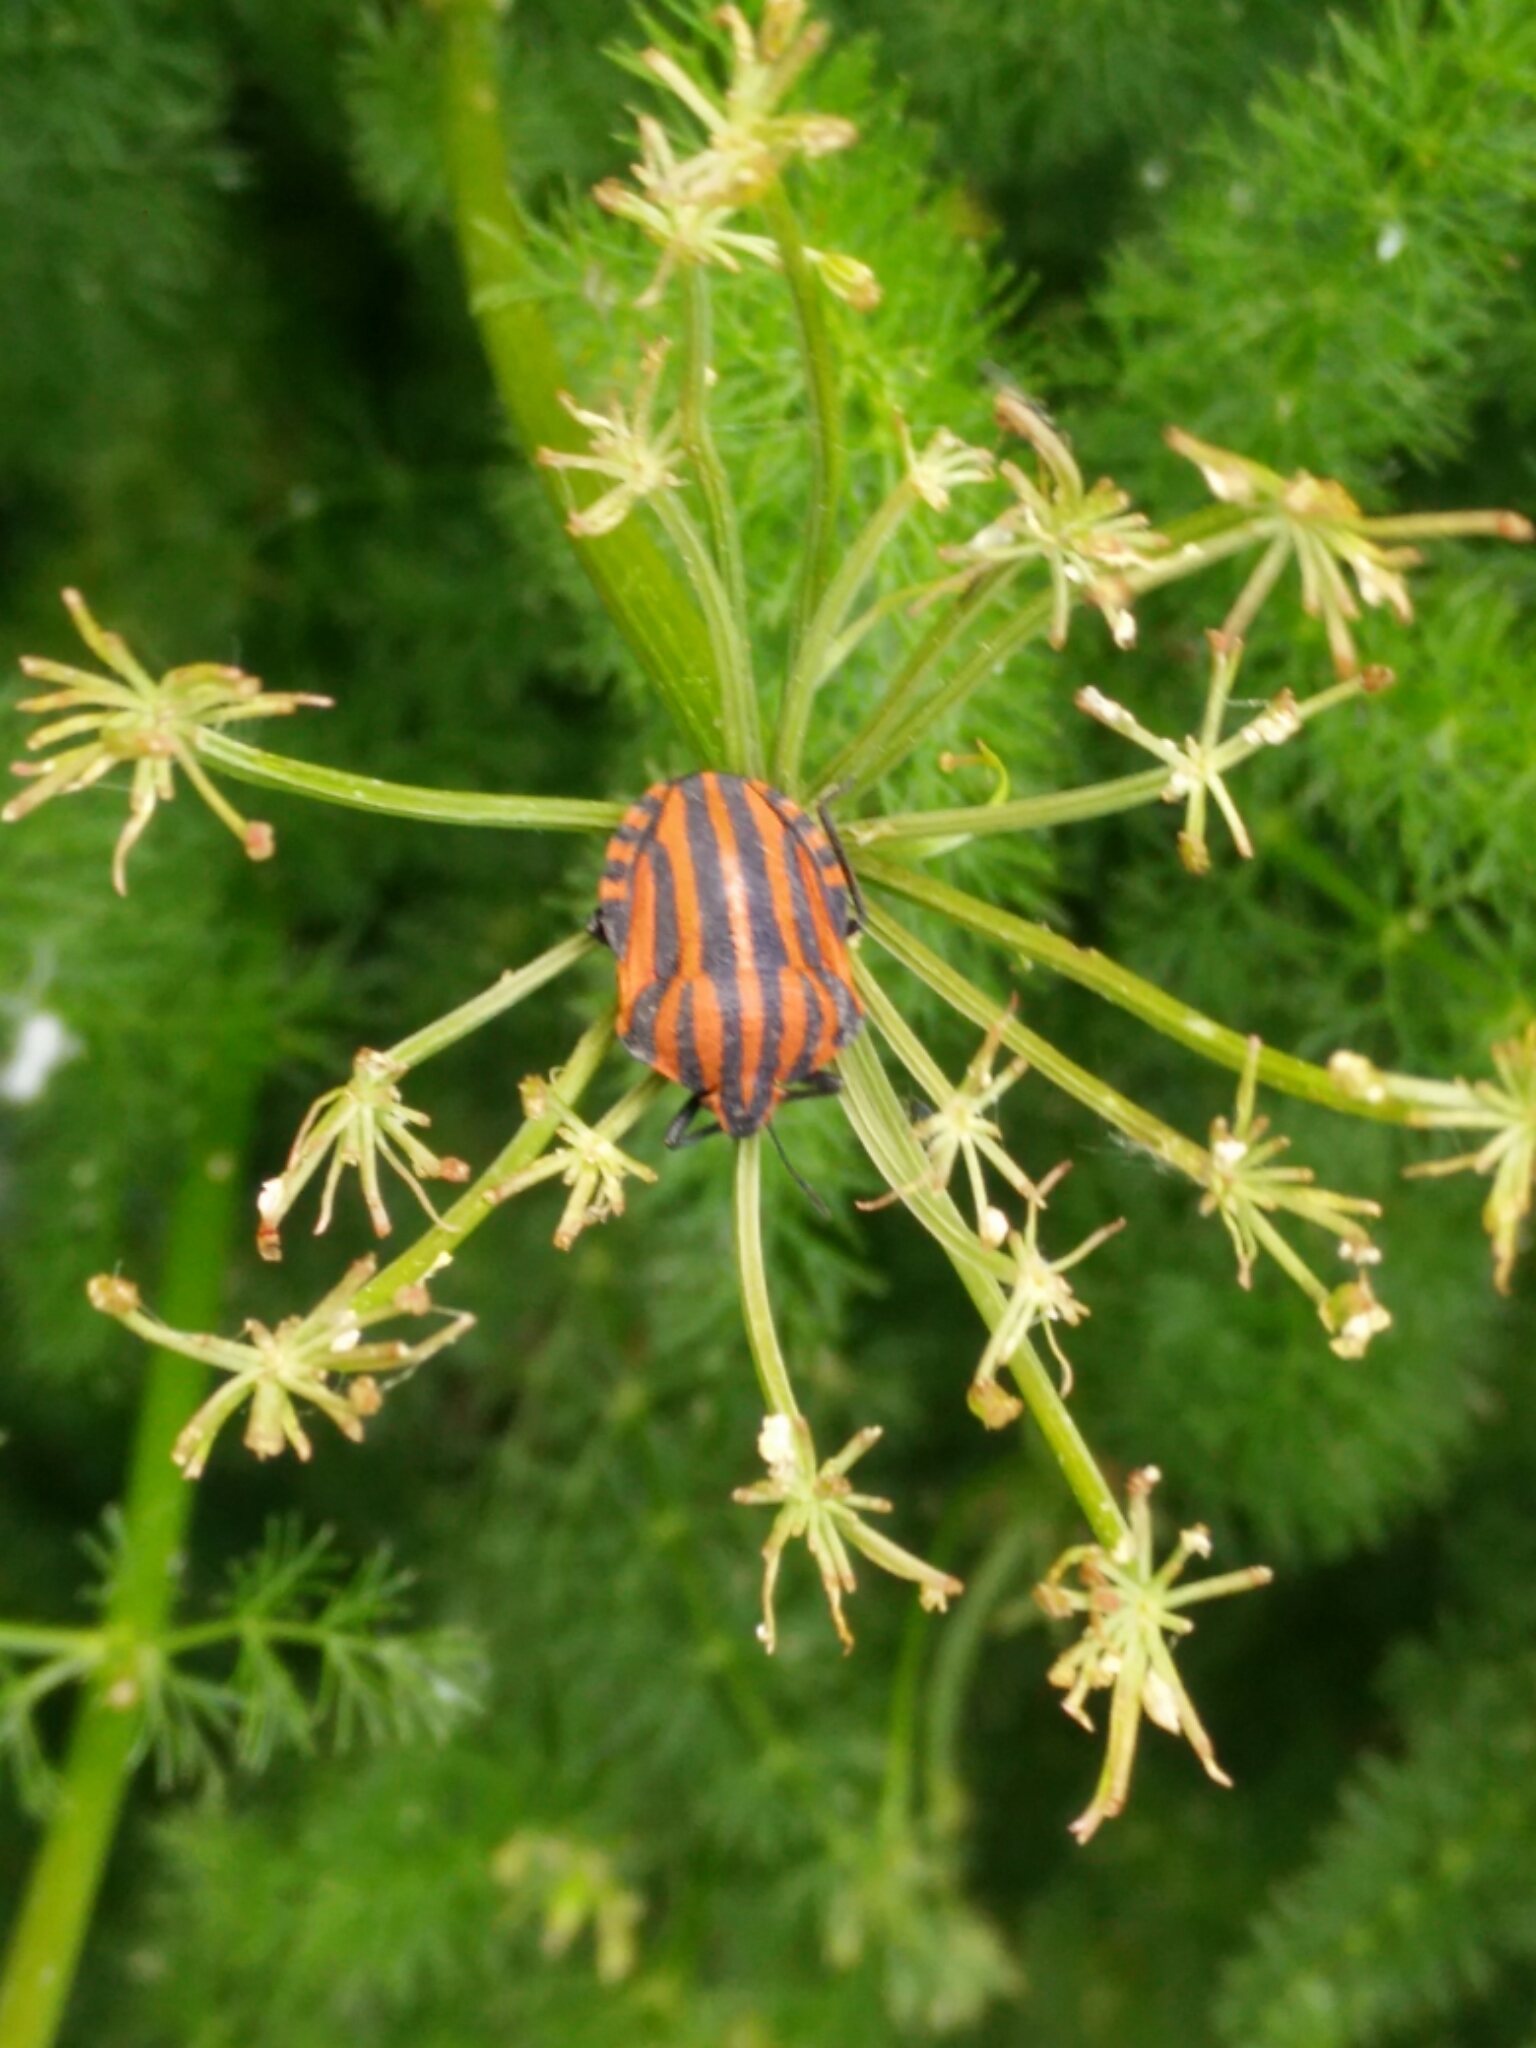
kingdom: Animalia
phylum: Arthropoda
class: Insecta
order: Hemiptera
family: Pentatomidae
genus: Graphosoma
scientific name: Graphosoma italicum
